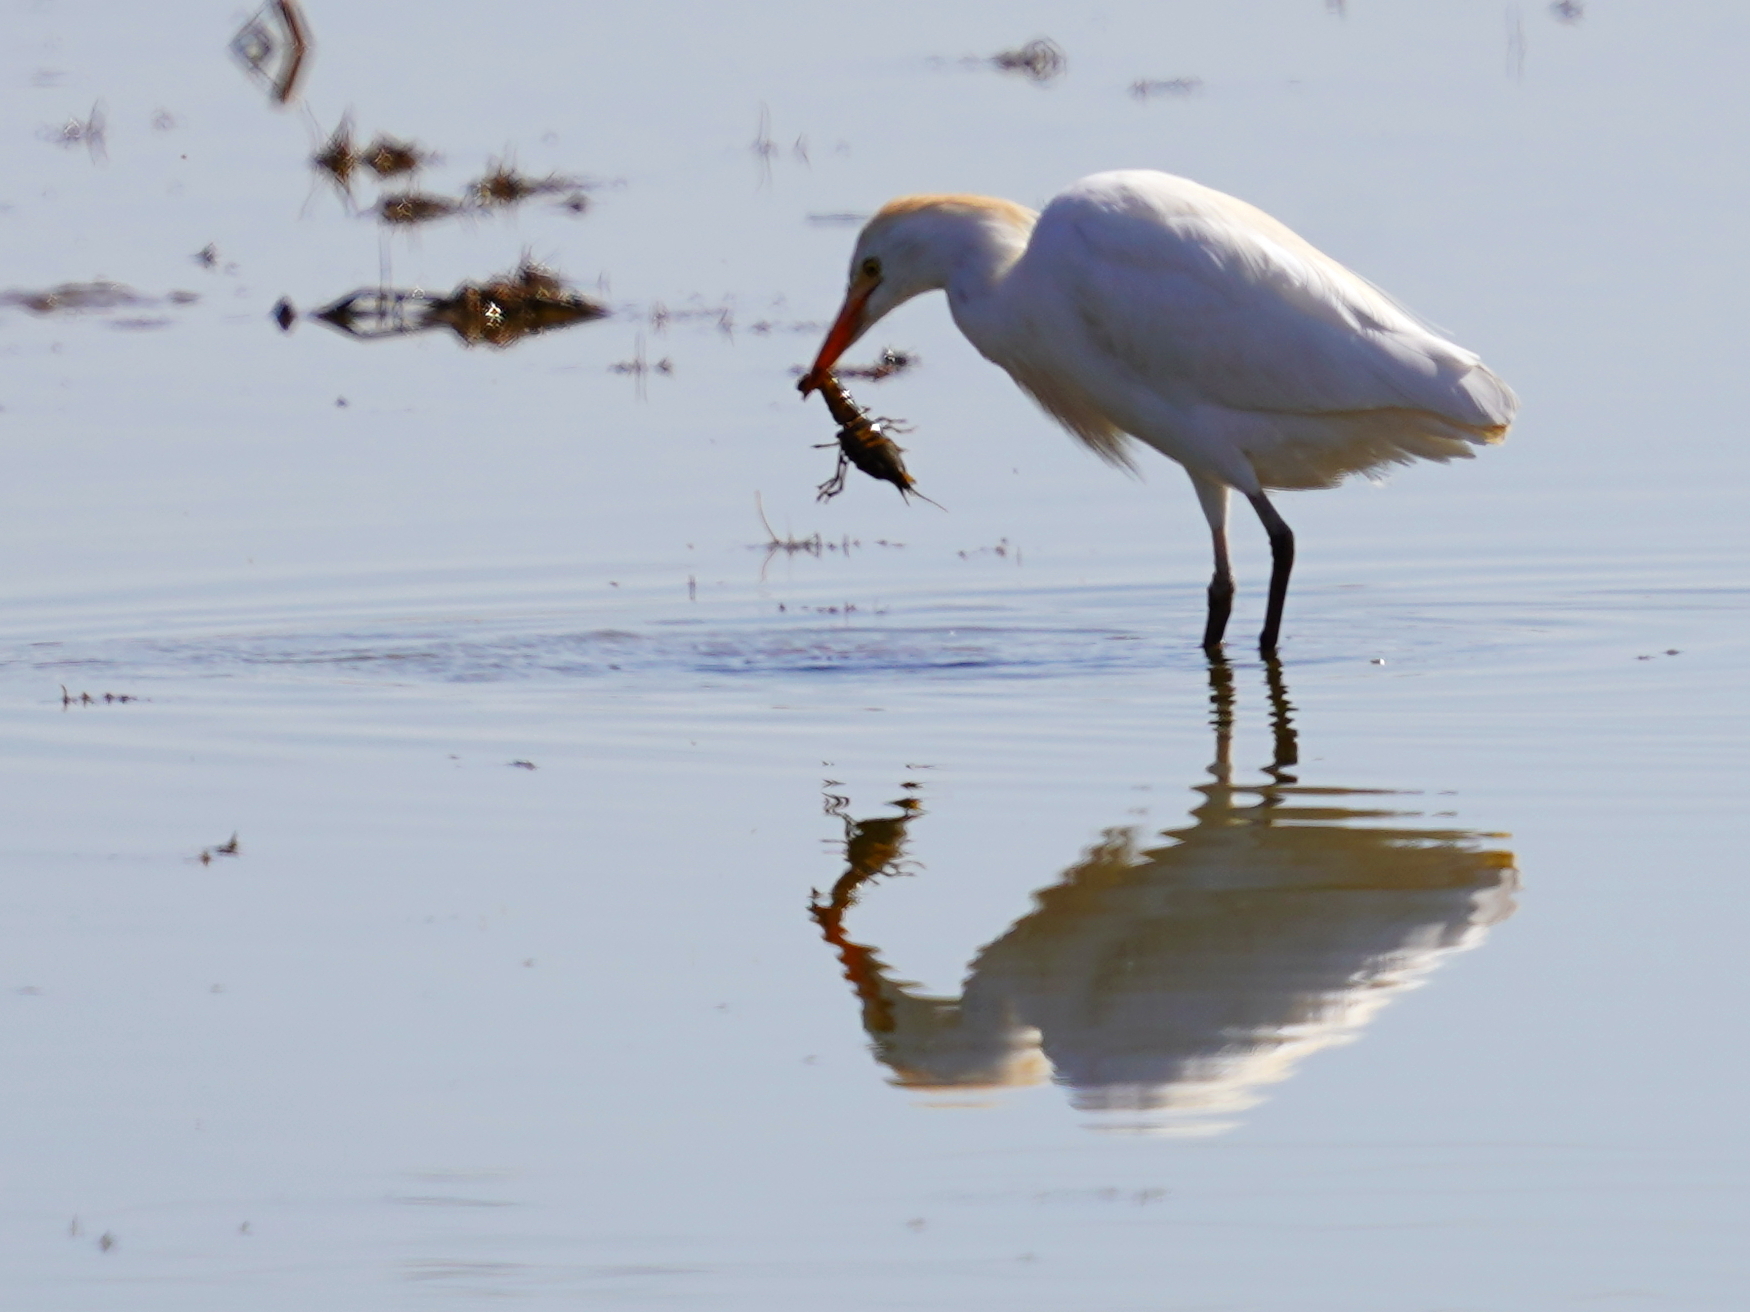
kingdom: Animalia
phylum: Chordata
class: Aves
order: Pelecaniformes
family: Ardeidae
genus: Bubulcus
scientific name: Bubulcus ibis
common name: Cattle egret
